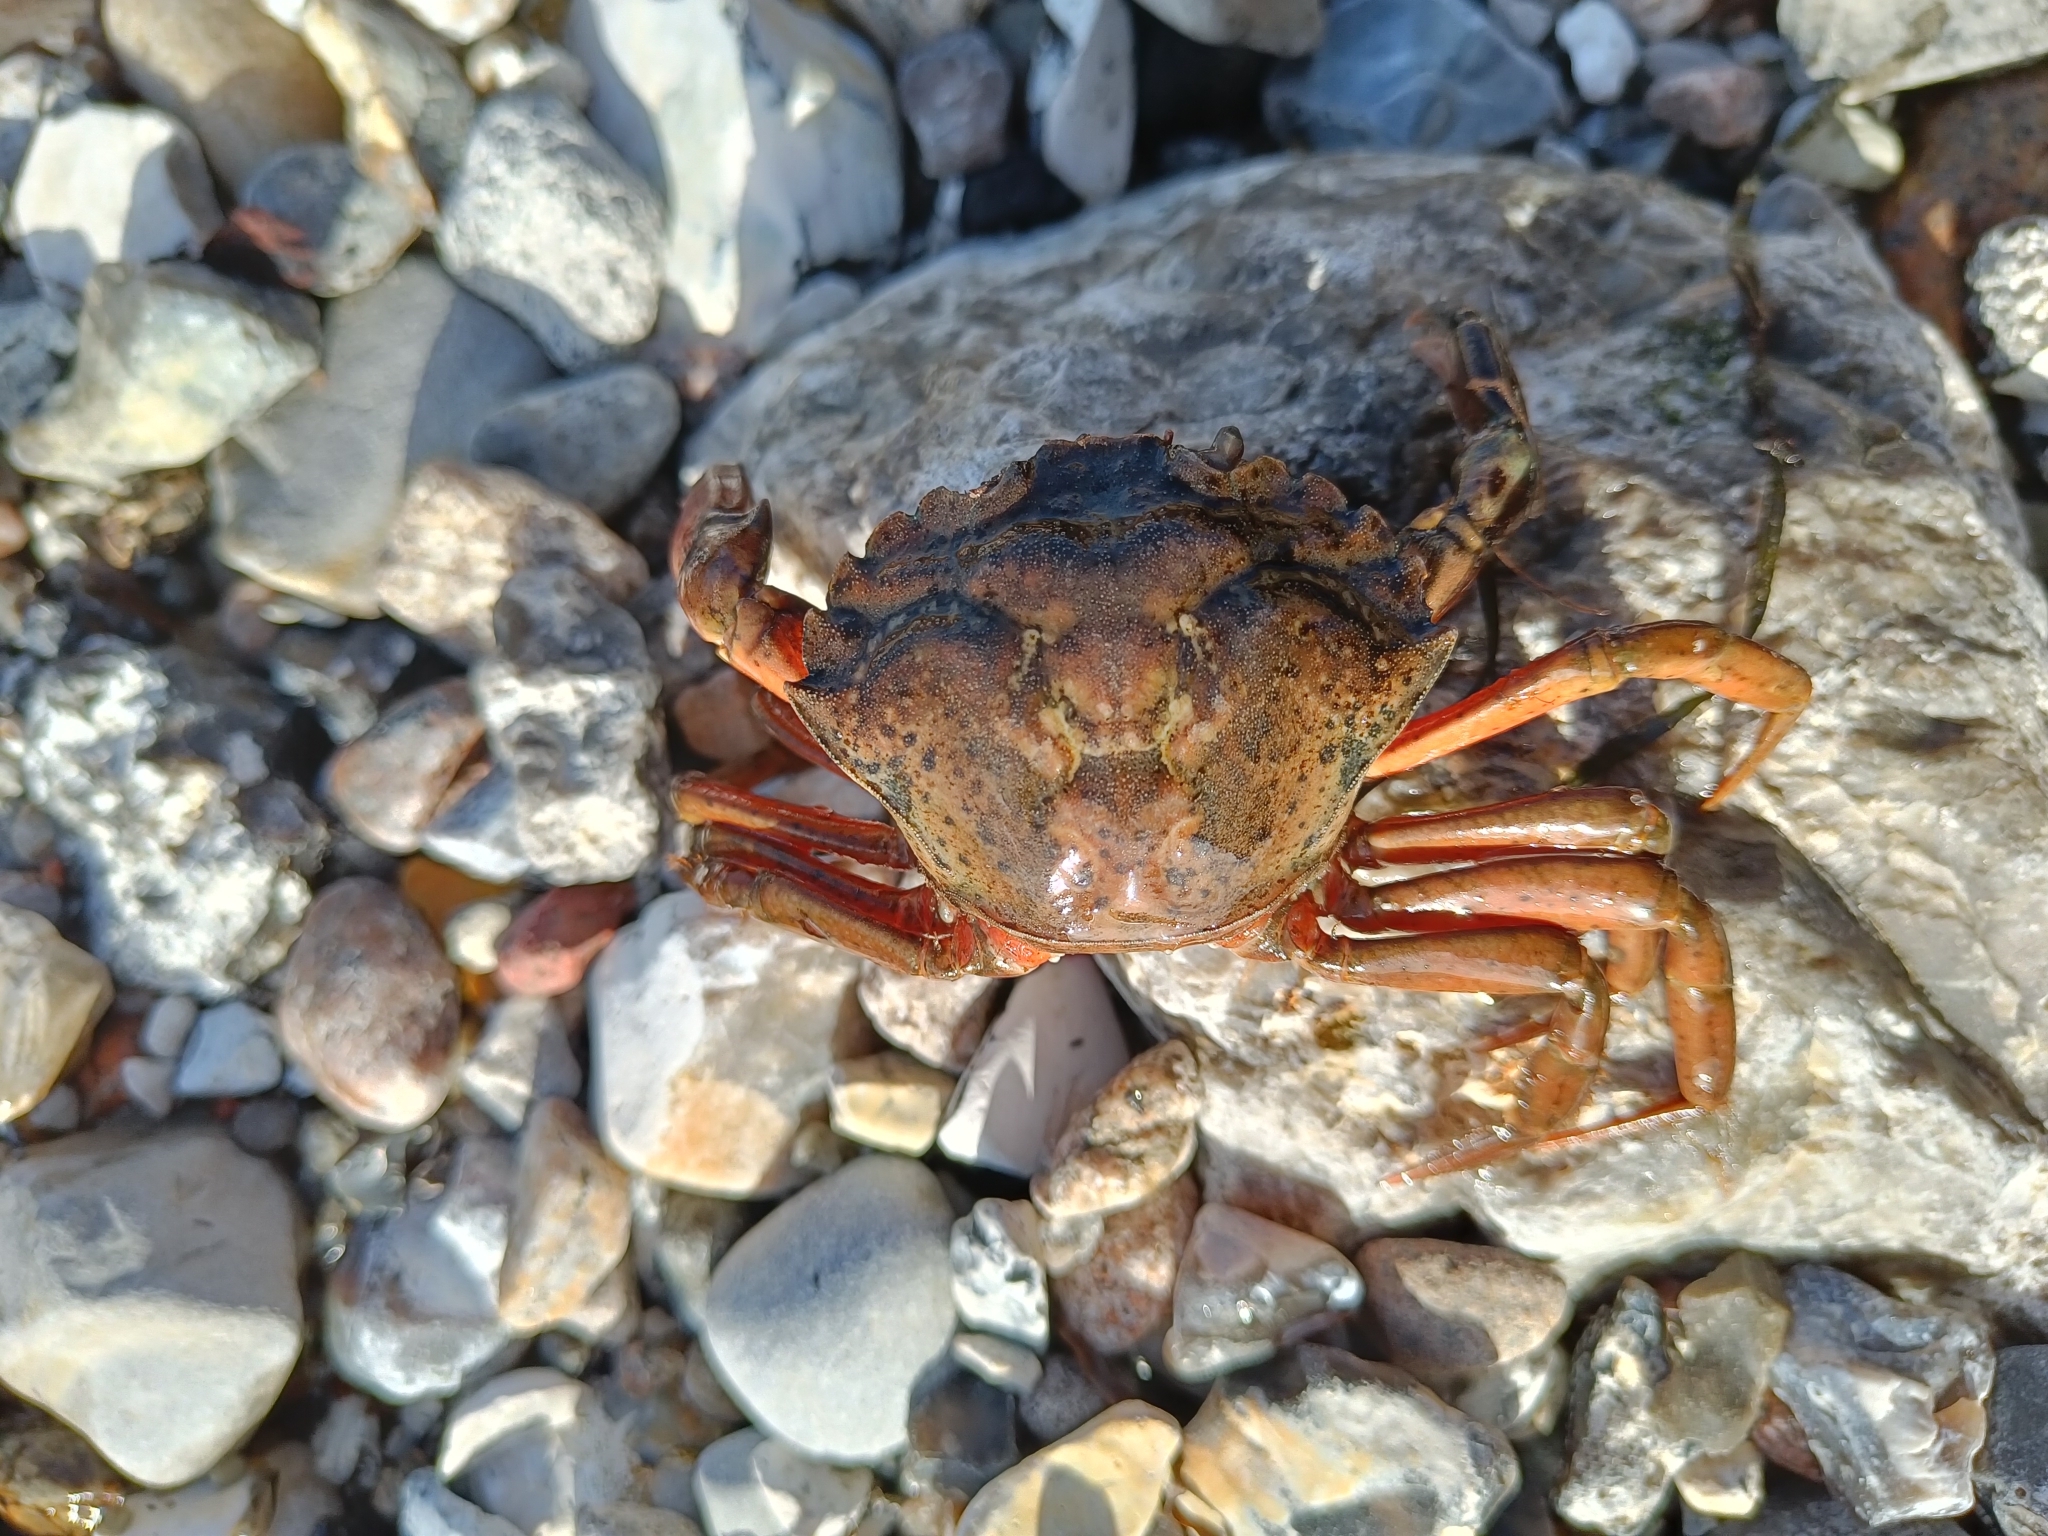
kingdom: Animalia
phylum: Arthropoda
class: Malacostraca
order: Decapoda
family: Carcinidae
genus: Carcinus
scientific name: Carcinus maenas
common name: European green crab
